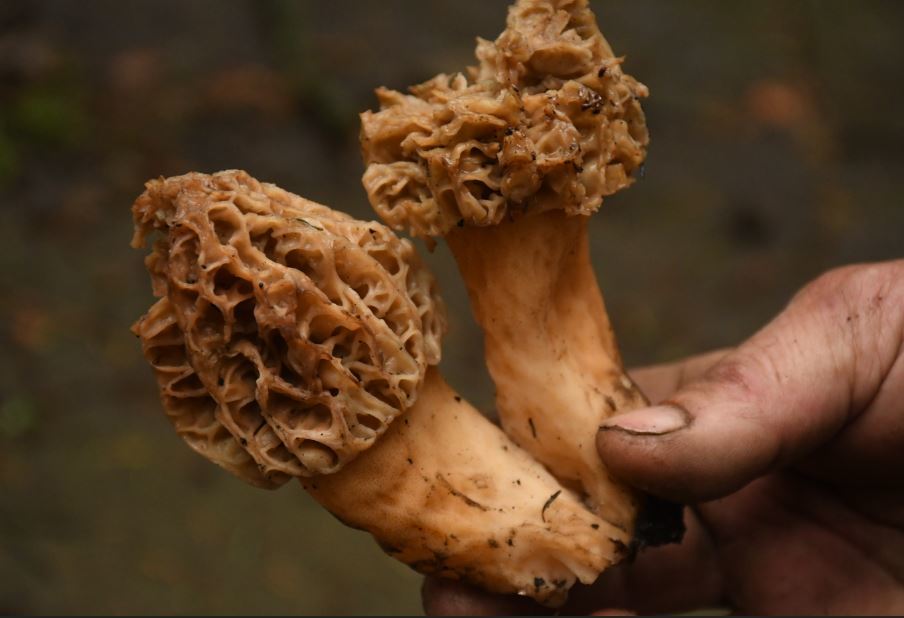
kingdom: Fungi
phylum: Ascomycota
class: Pezizomycetes
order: Pezizales
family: Morchellaceae
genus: Morchella
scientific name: Morchella tridentina
